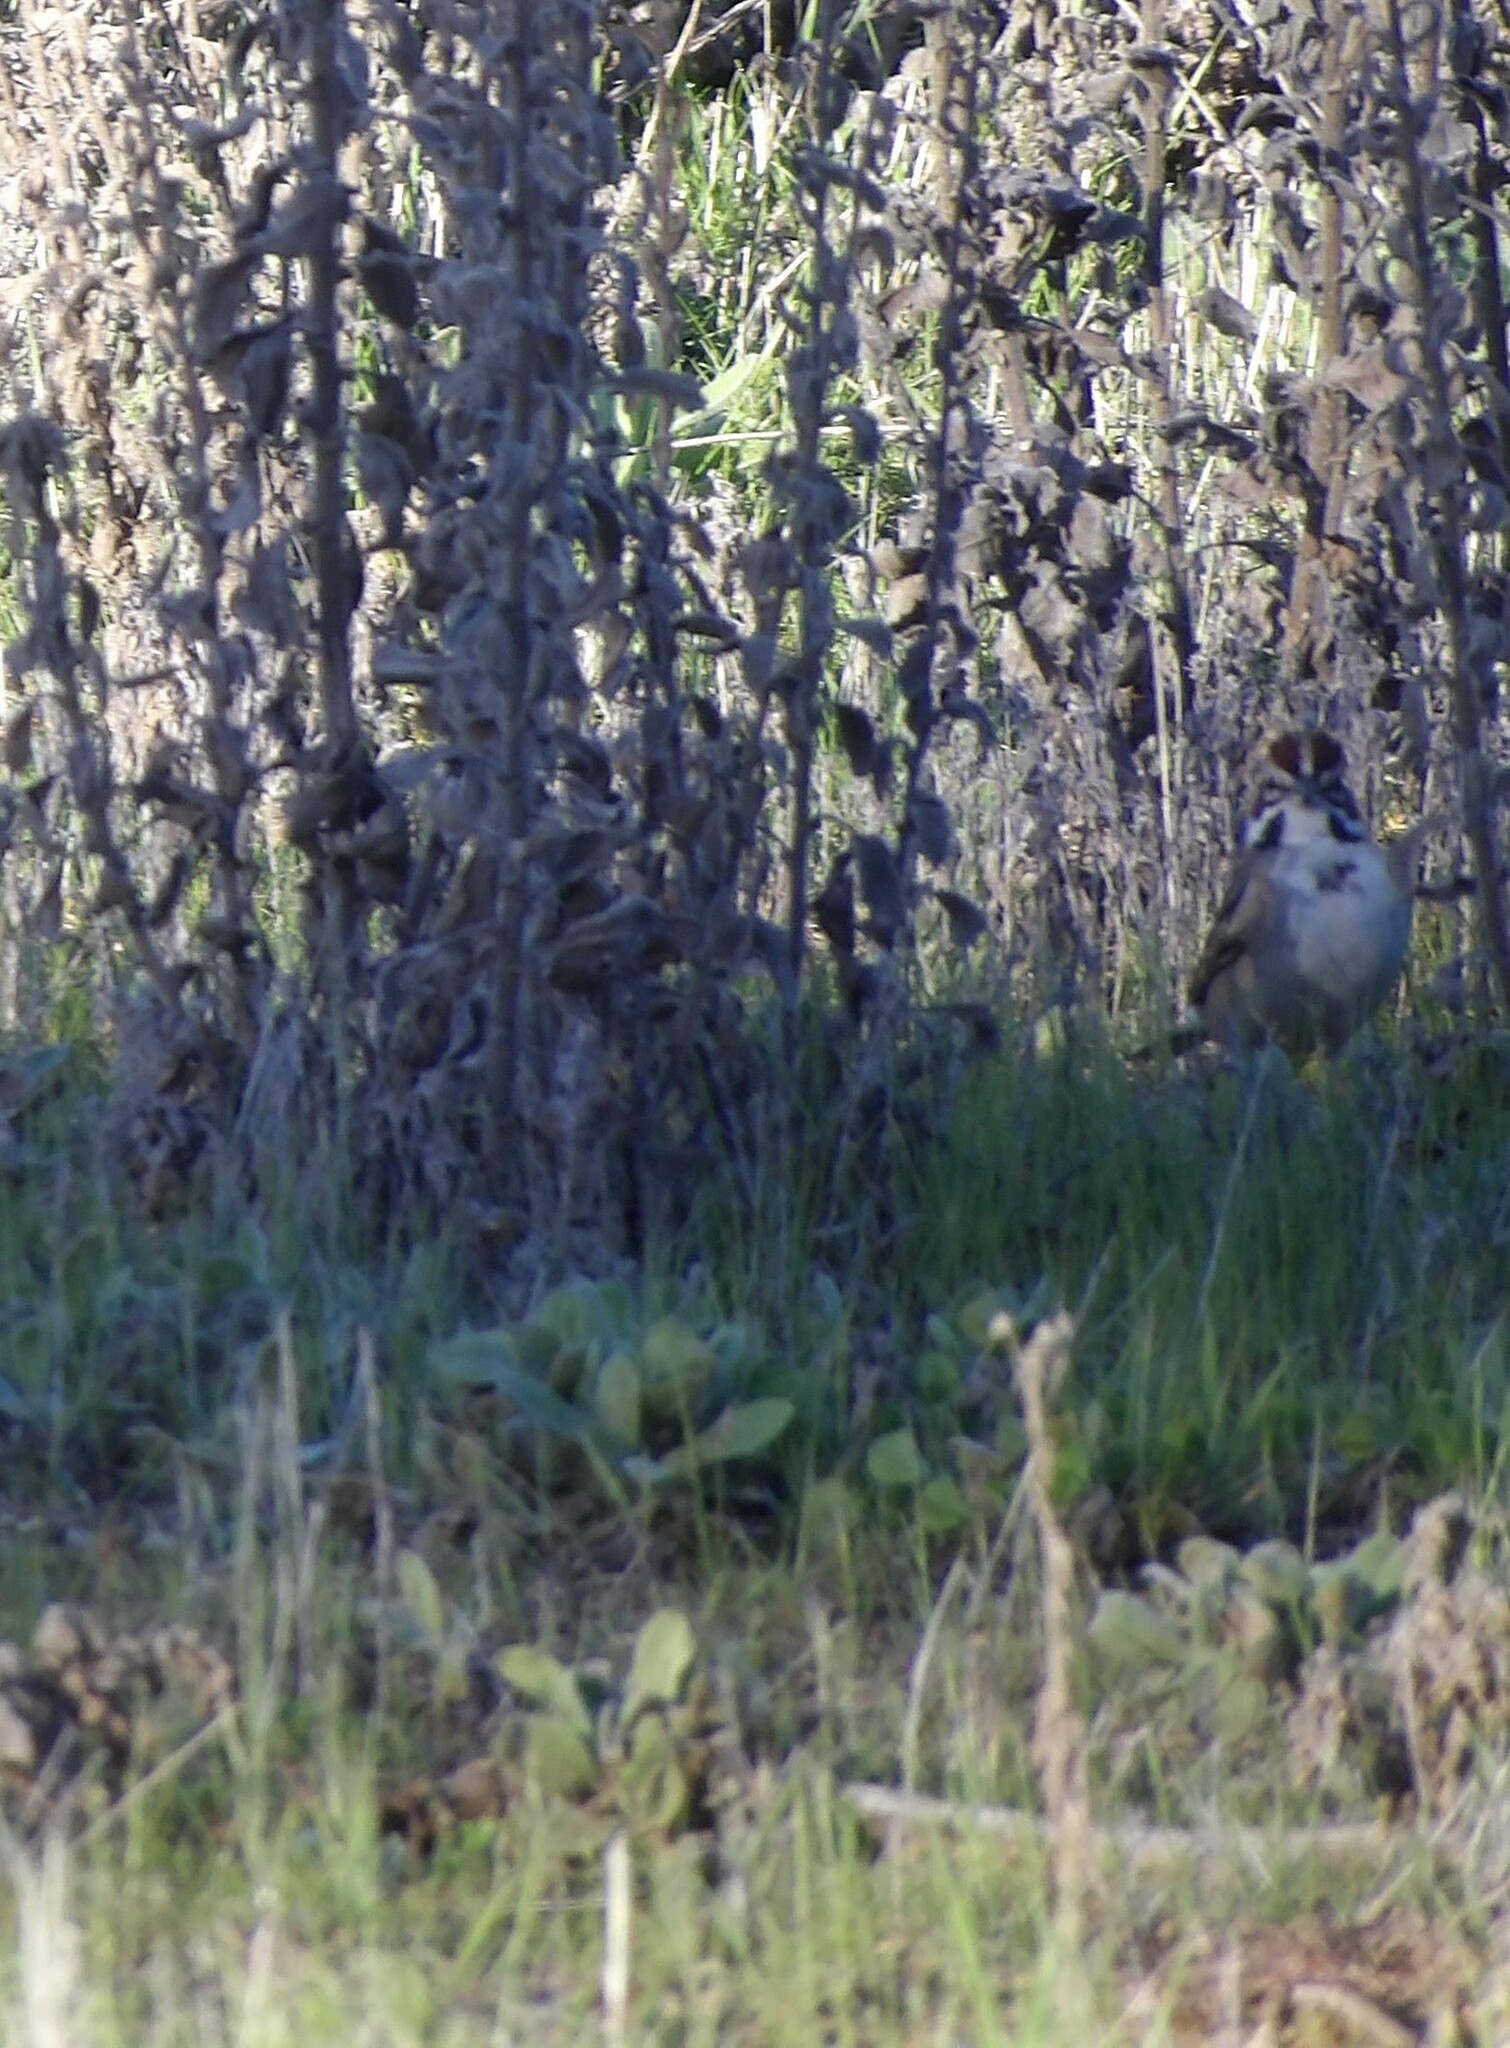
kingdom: Animalia
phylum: Chordata
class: Aves
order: Passeriformes
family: Passerellidae
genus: Chondestes
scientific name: Chondestes grammacus
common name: Lark sparrow
